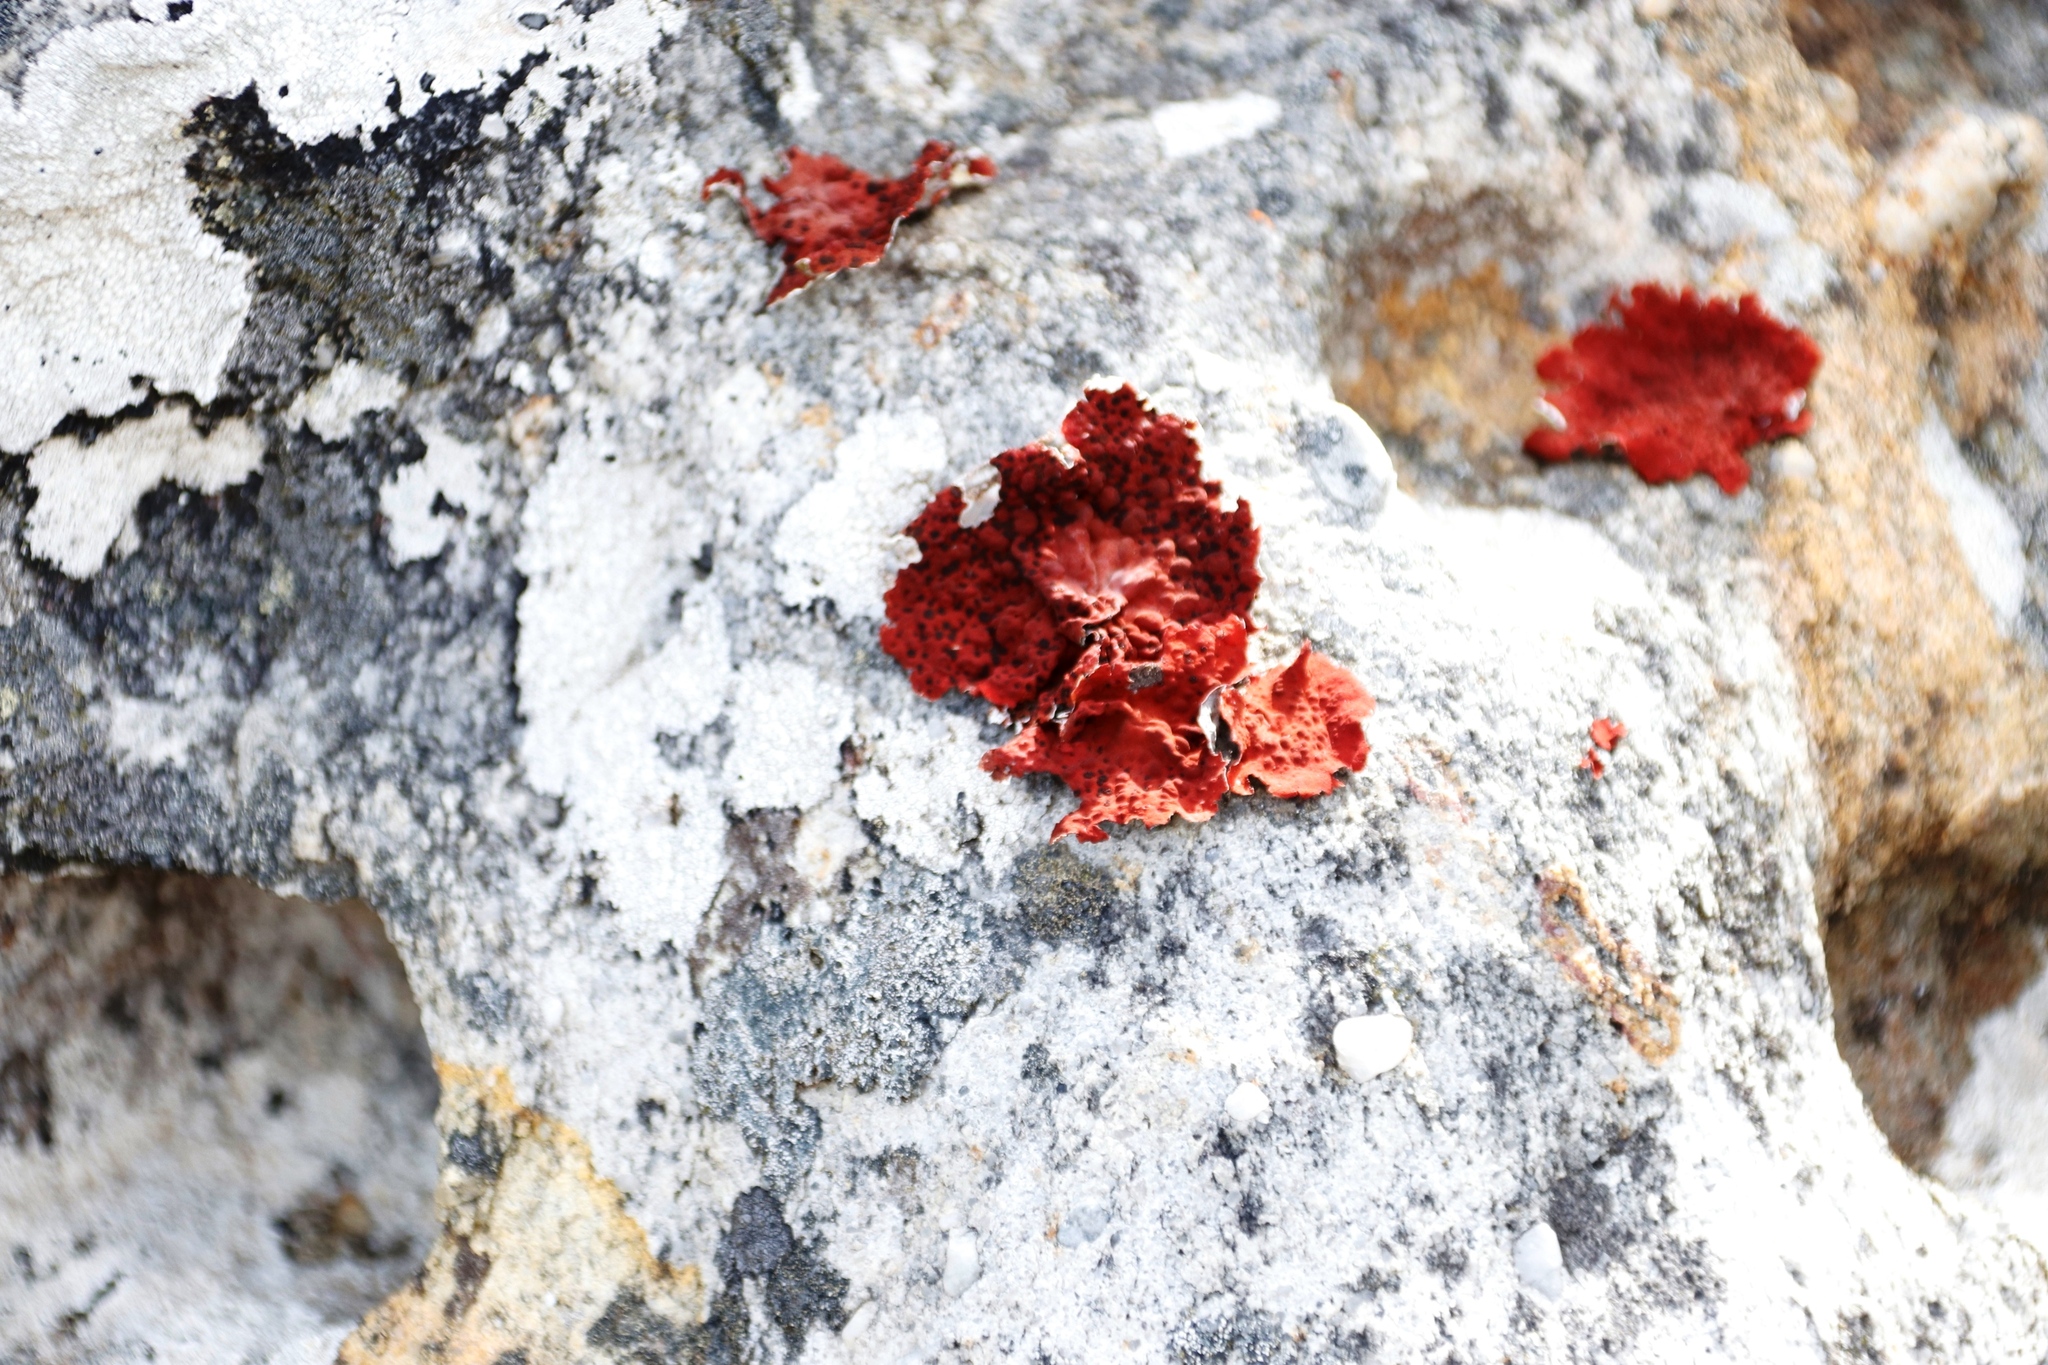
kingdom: Fungi
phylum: Ascomycota
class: Lecanoromycetes
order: Umbilicariales
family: Umbilicariaceae
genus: Lasallia
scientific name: Lasallia rubiginosa
